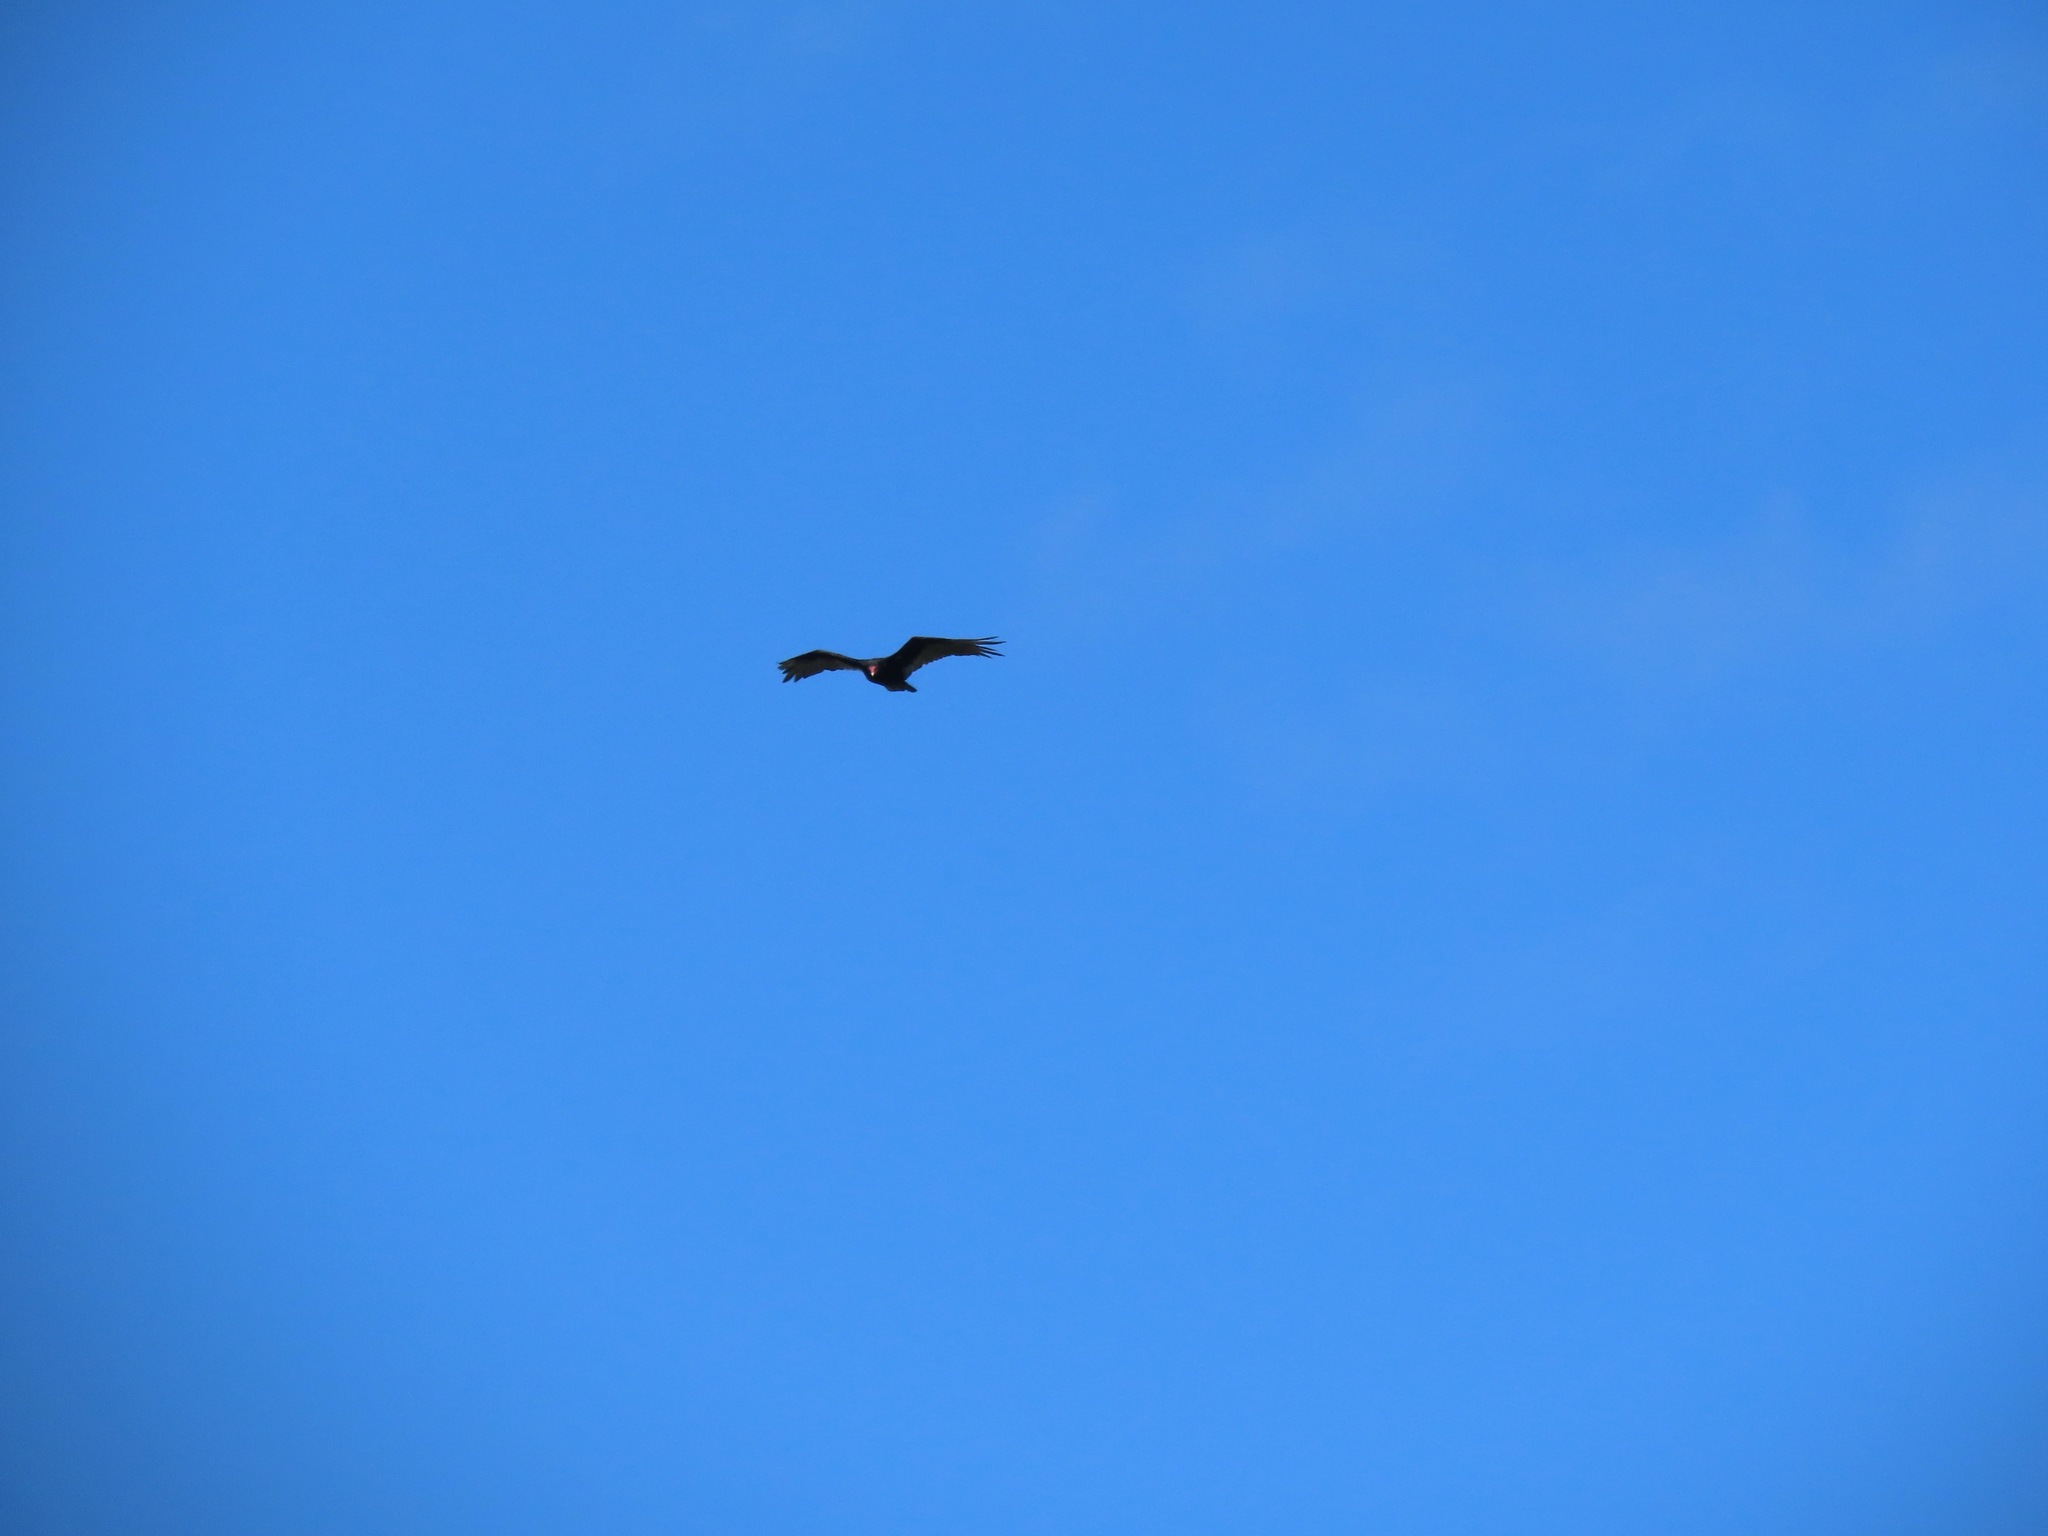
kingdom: Animalia
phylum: Chordata
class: Aves
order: Accipitriformes
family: Cathartidae
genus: Cathartes
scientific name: Cathartes aura
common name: Turkey vulture
